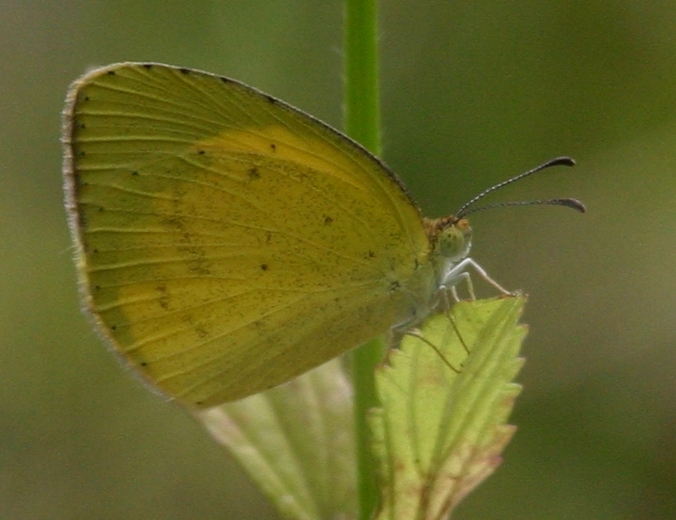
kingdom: Animalia
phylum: Arthropoda
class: Insecta
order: Lepidoptera
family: Pieridae
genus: Eurema
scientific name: Eurema brigitta
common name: Small grass yellow
